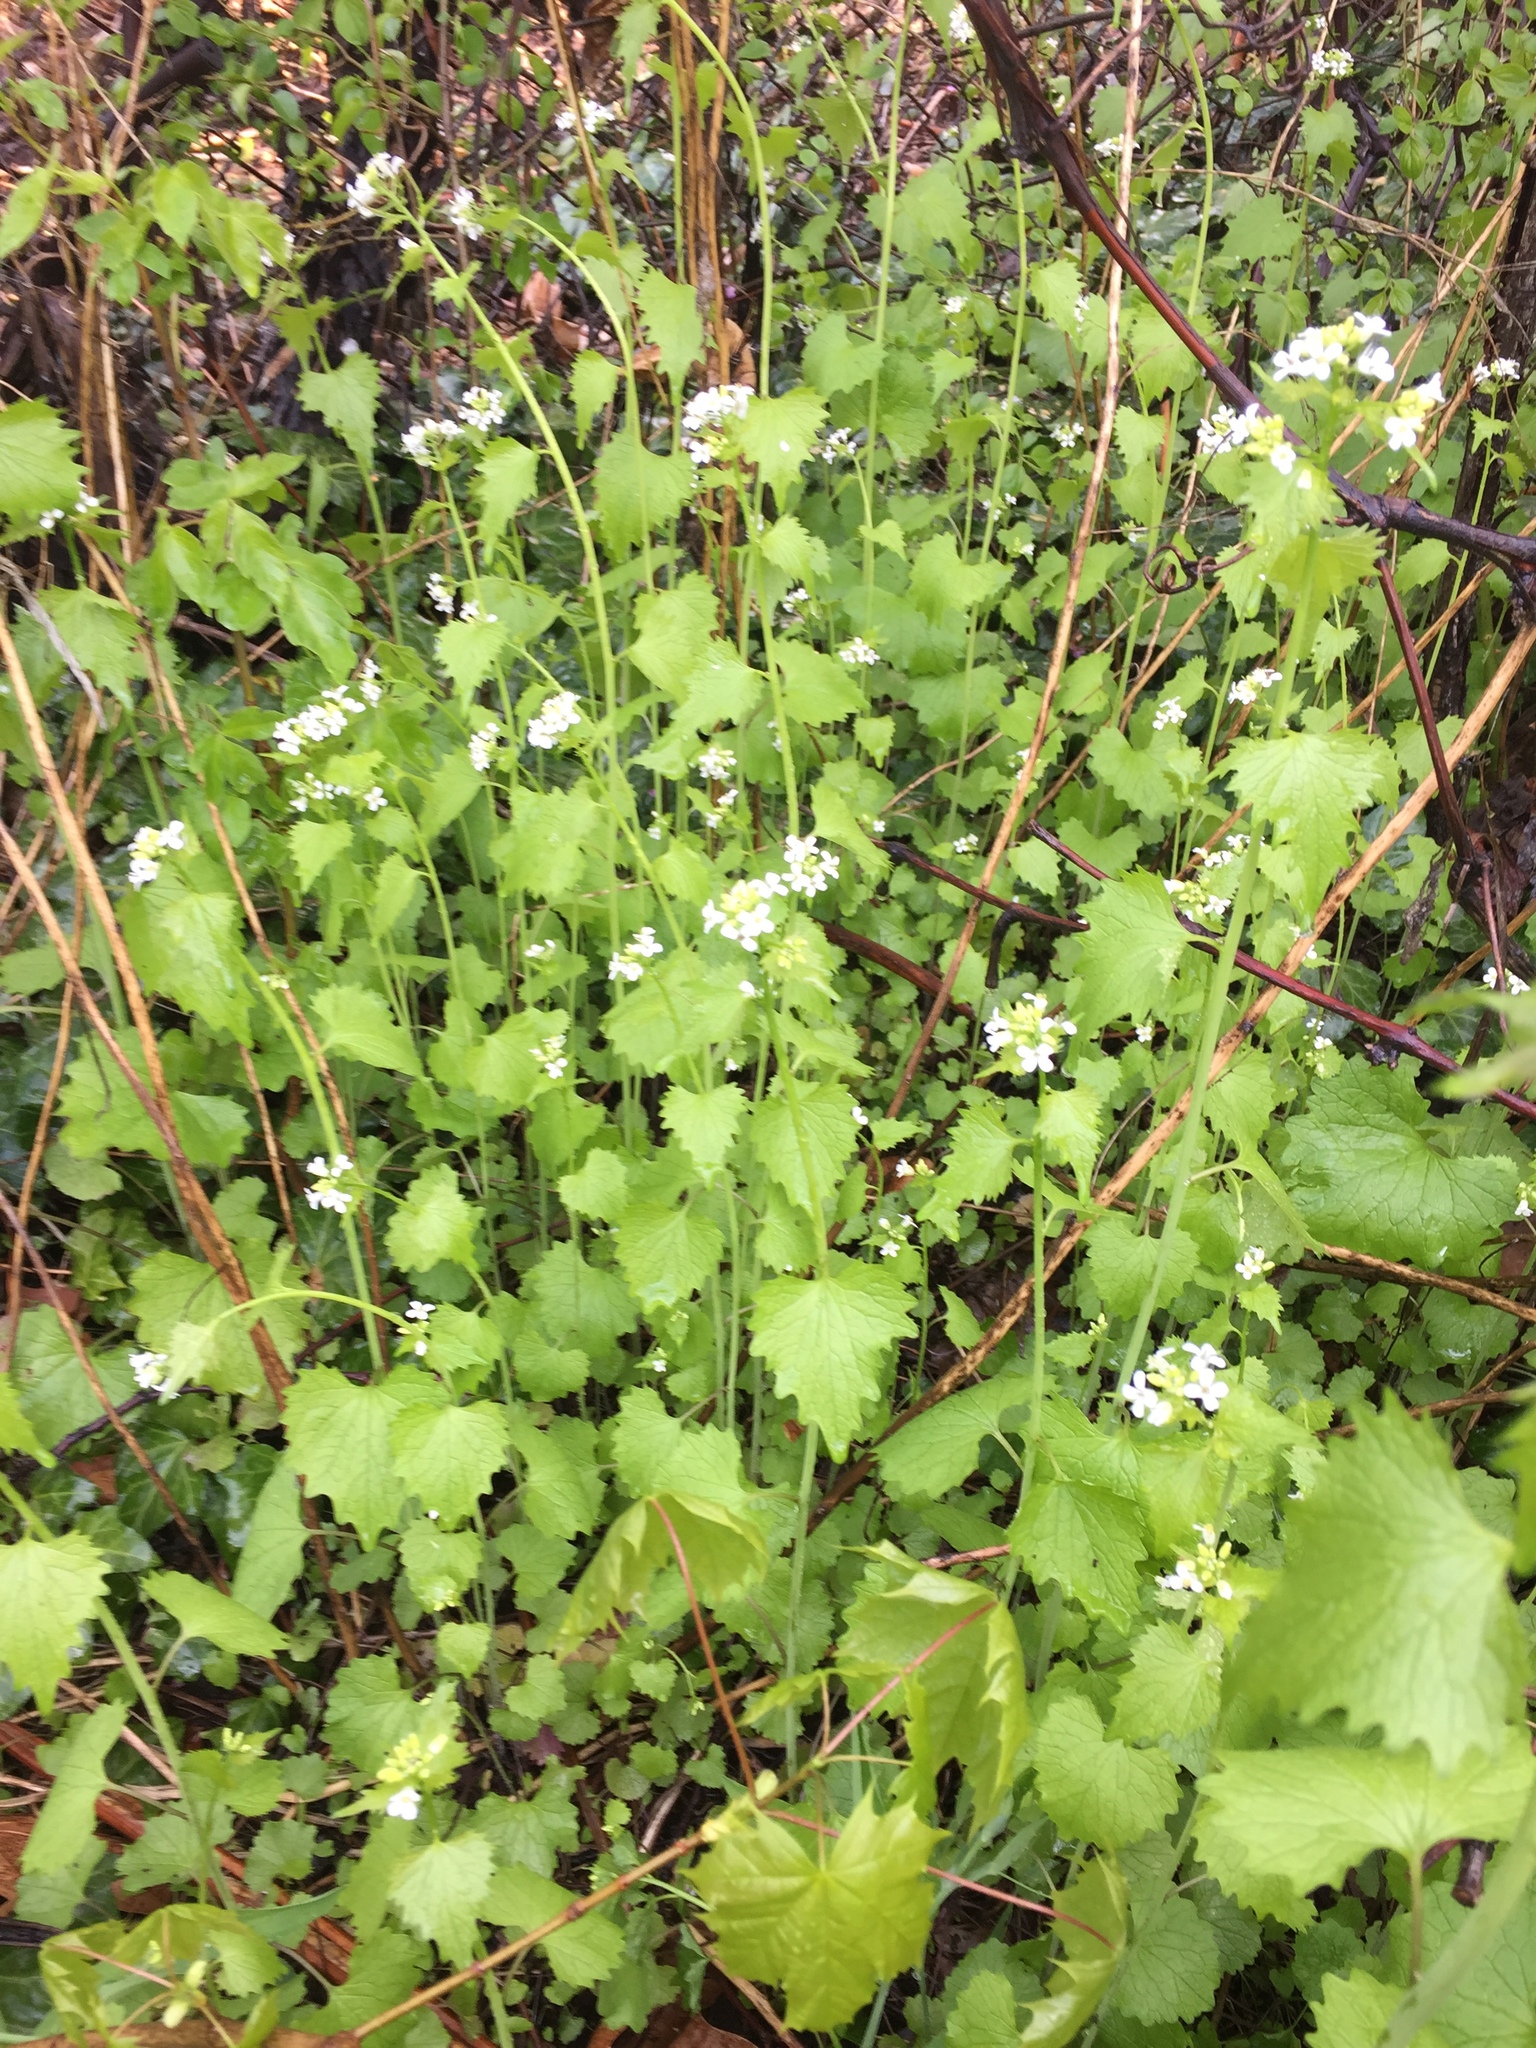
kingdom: Plantae
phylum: Tracheophyta
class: Magnoliopsida
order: Brassicales
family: Brassicaceae
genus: Alliaria
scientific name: Alliaria petiolata
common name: Garlic mustard
